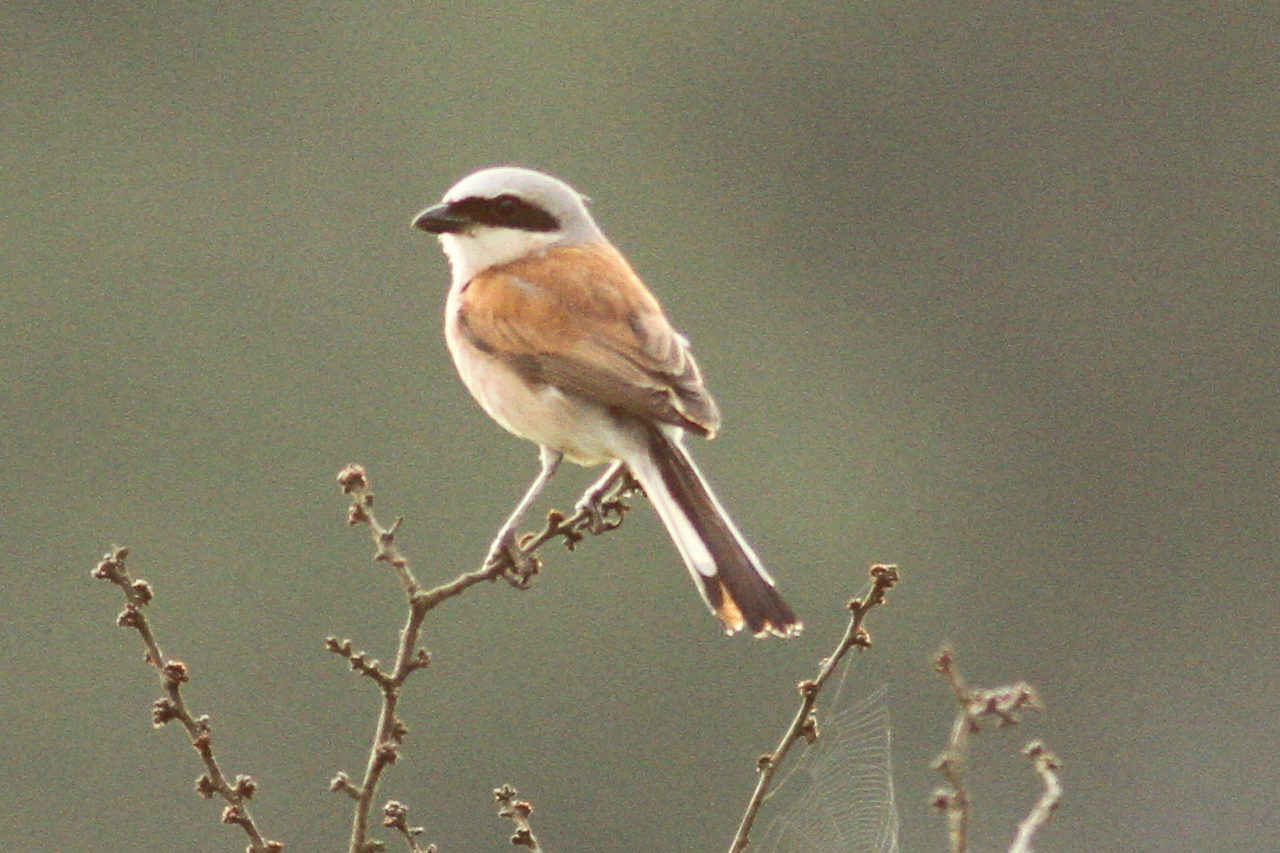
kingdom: Animalia
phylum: Chordata
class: Aves
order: Passeriformes
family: Laniidae
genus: Lanius
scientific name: Lanius collurio
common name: Red-backed shrike
